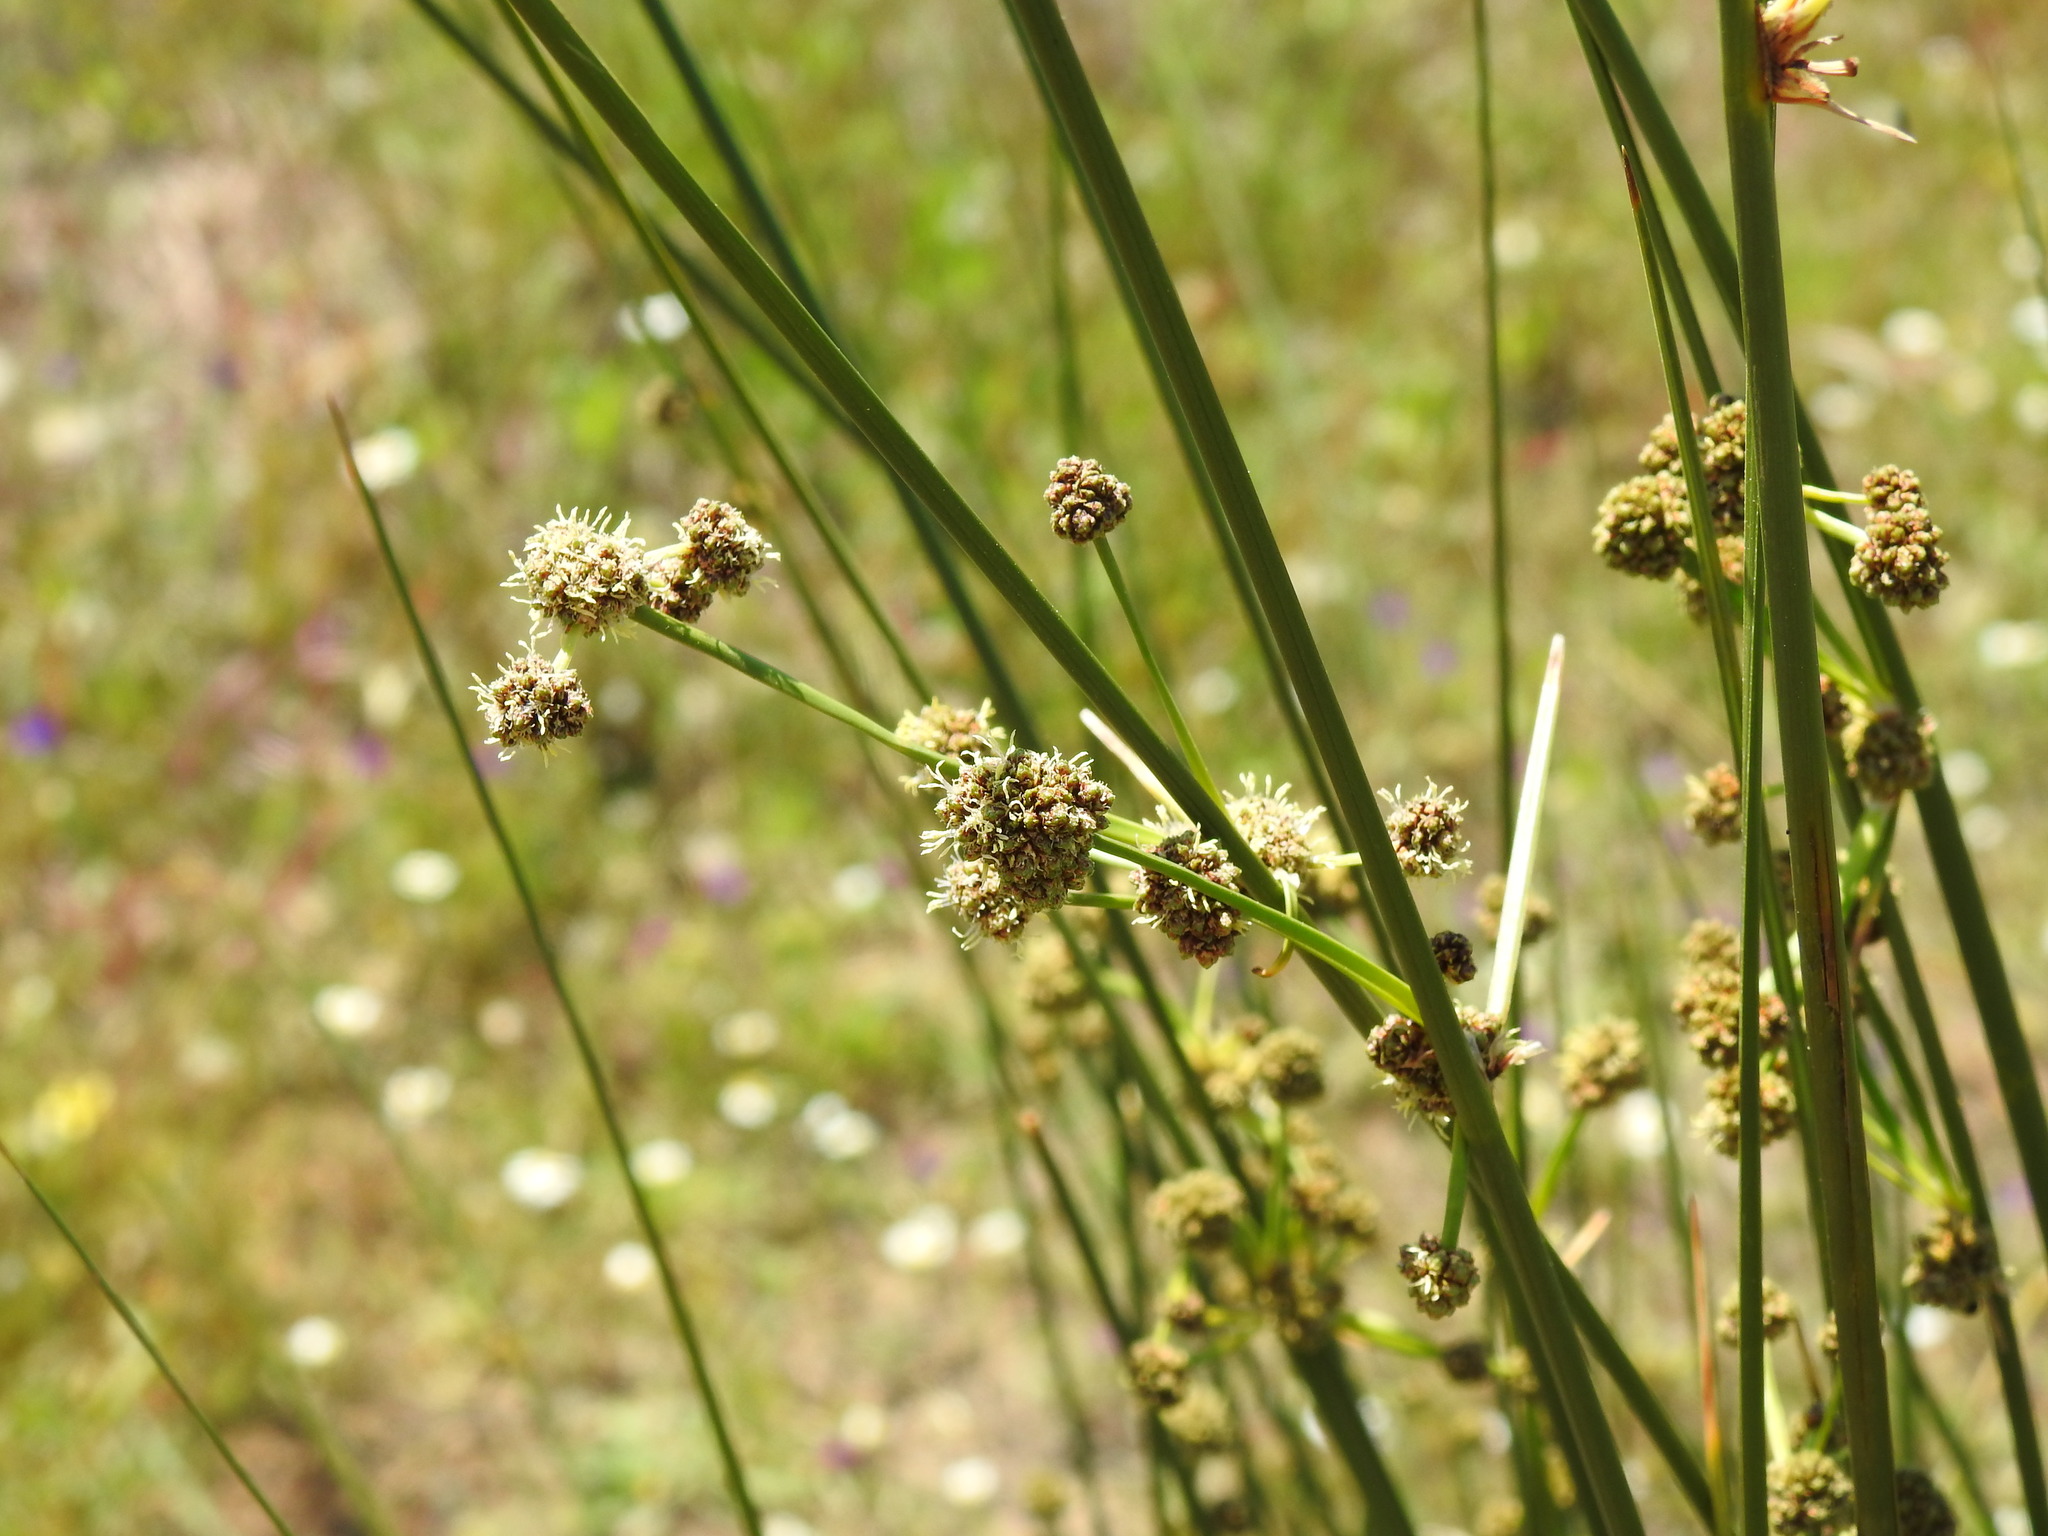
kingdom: Plantae
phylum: Tracheophyta
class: Liliopsida
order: Poales
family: Cyperaceae
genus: Scirpoides
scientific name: Scirpoides holoschoenus
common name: Round-headed club-rush
